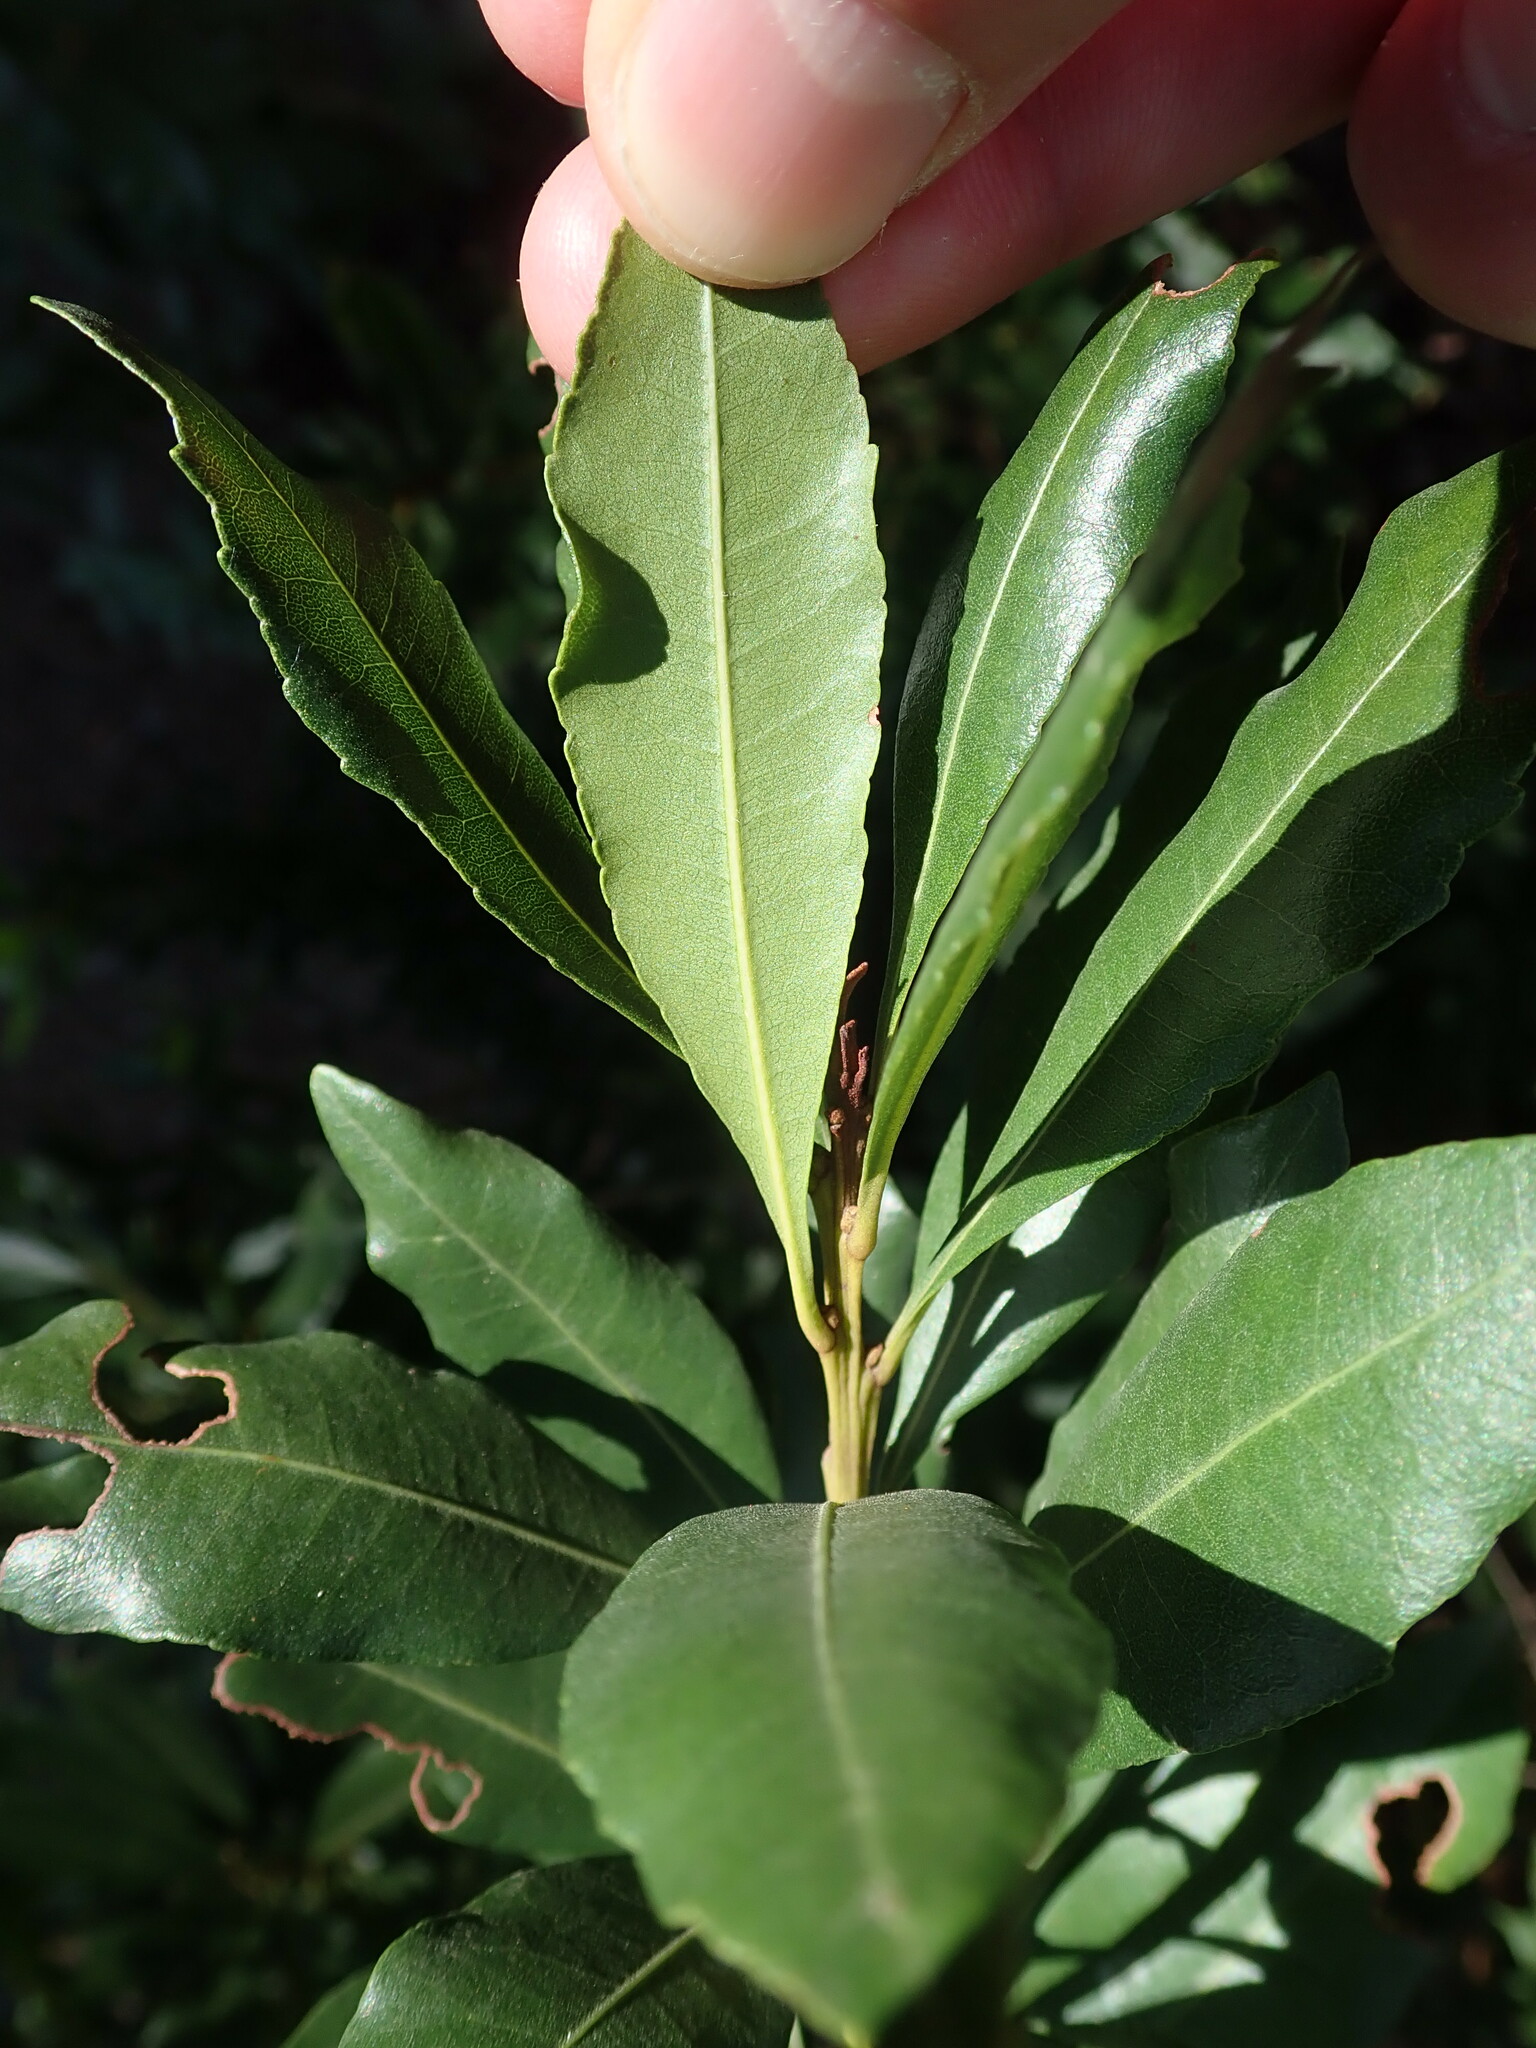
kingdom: Plantae
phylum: Tracheophyta
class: Magnoliopsida
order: Fagales
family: Myricaceae
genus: Morella
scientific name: Morella faya
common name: Firetree
